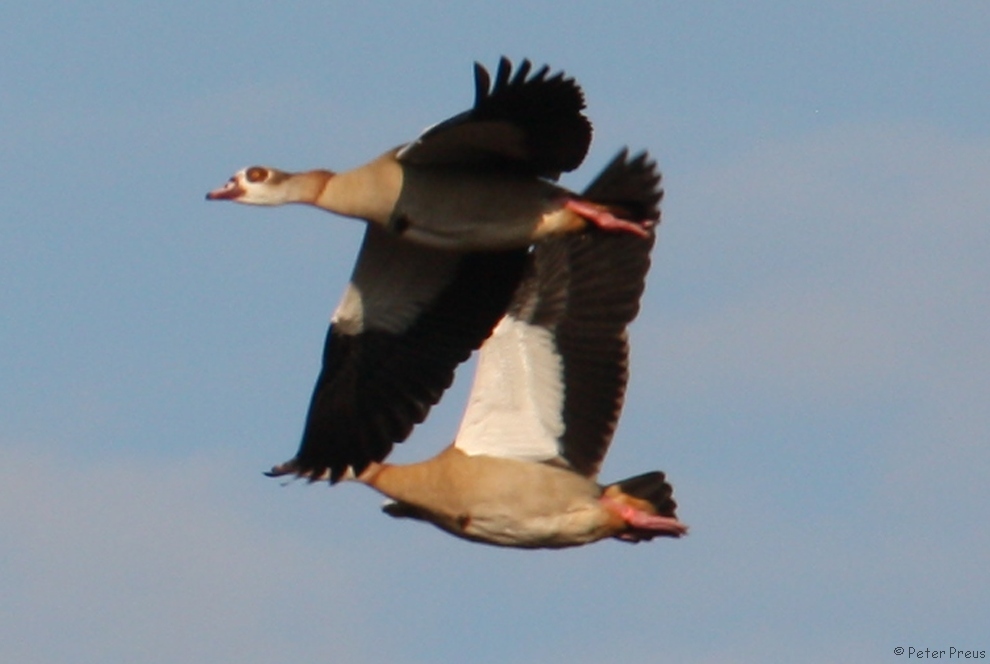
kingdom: Animalia
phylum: Chordata
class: Aves
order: Anseriformes
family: Anatidae
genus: Alopochen
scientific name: Alopochen aegyptiaca
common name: Egyptian goose
